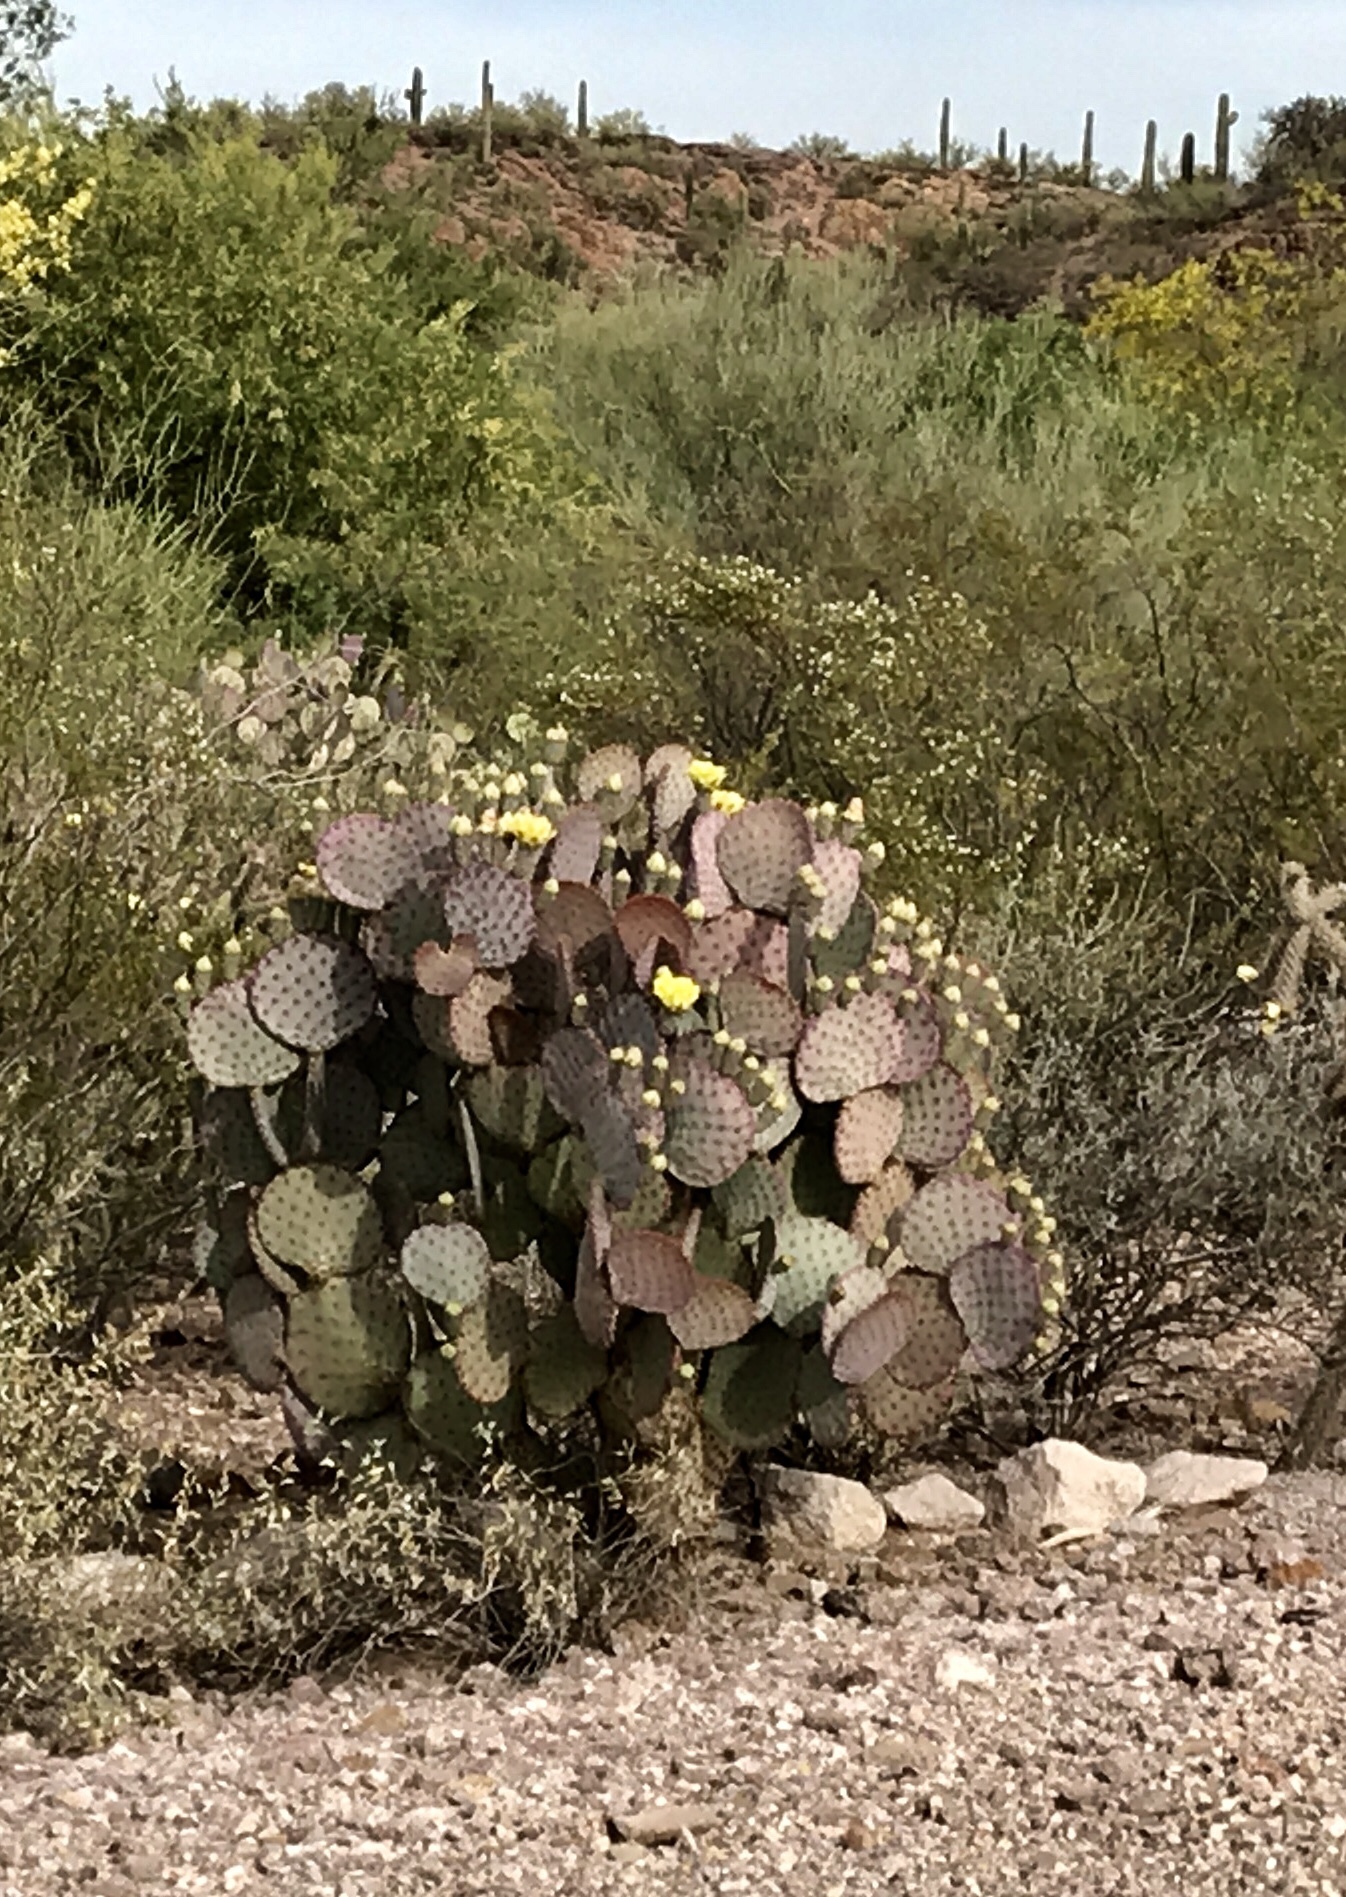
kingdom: Plantae
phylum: Tracheophyta
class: Magnoliopsida
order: Caryophyllales
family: Cactaceae
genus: Opuntia
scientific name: Opuntia gosseliniana
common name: Violet prickly-pear
